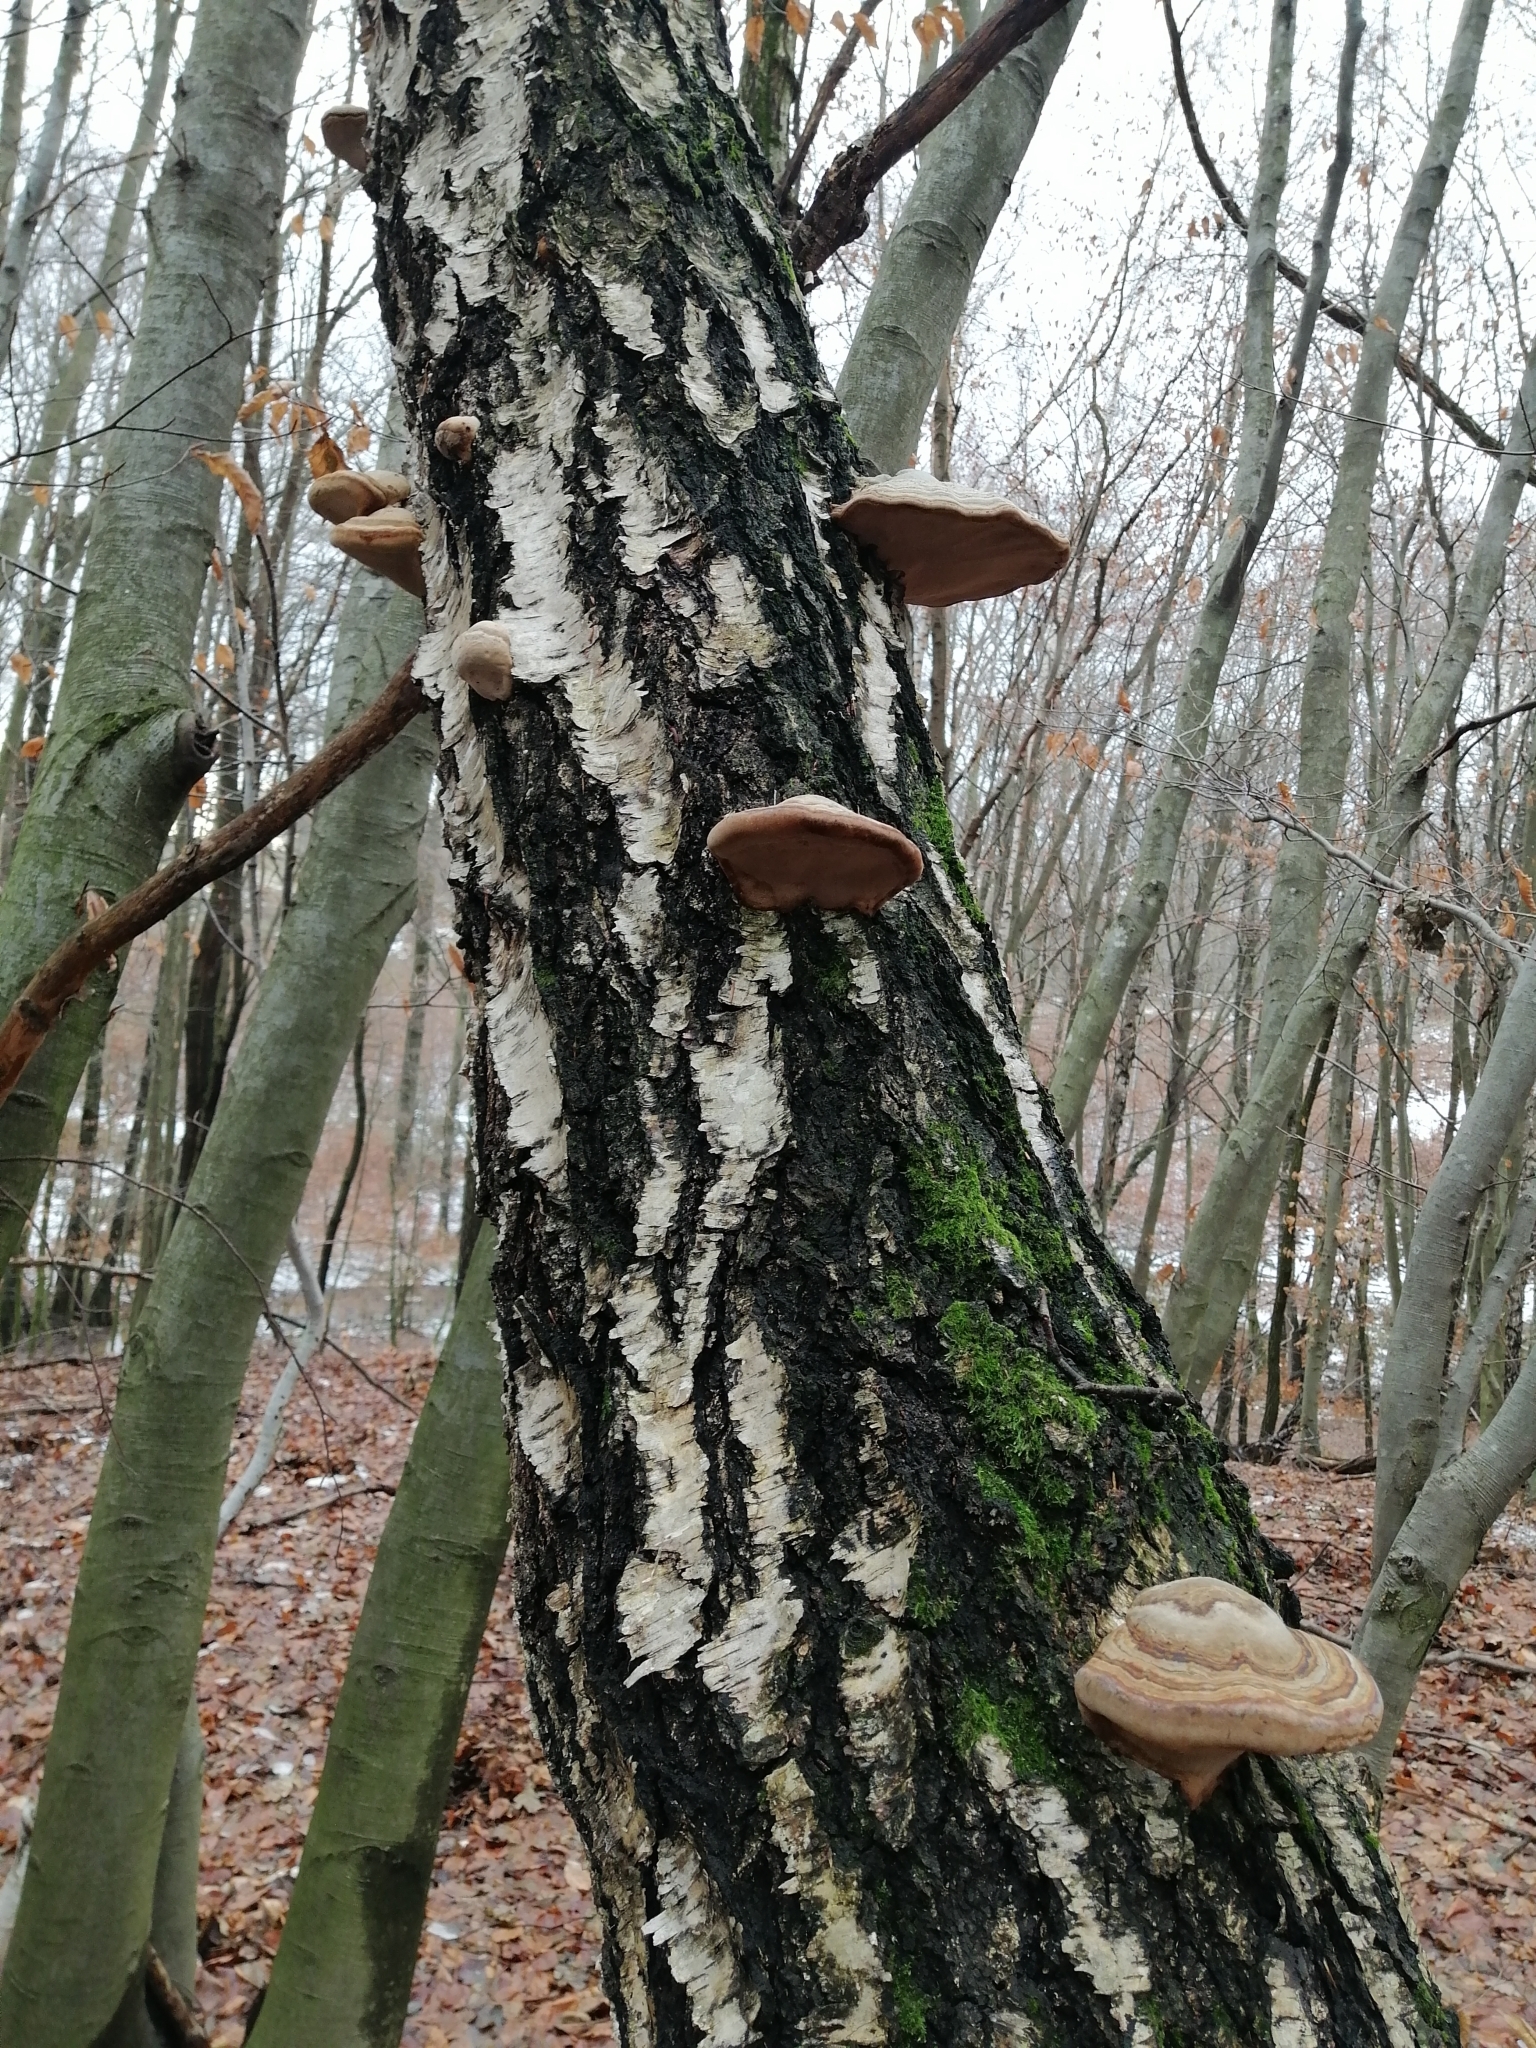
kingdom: Fungi
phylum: Basidiomycota
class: Agaricomycetes
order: Polyporales
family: Polyporaceae
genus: Fomes
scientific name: Fomes fomentarius
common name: Hoof fungus
